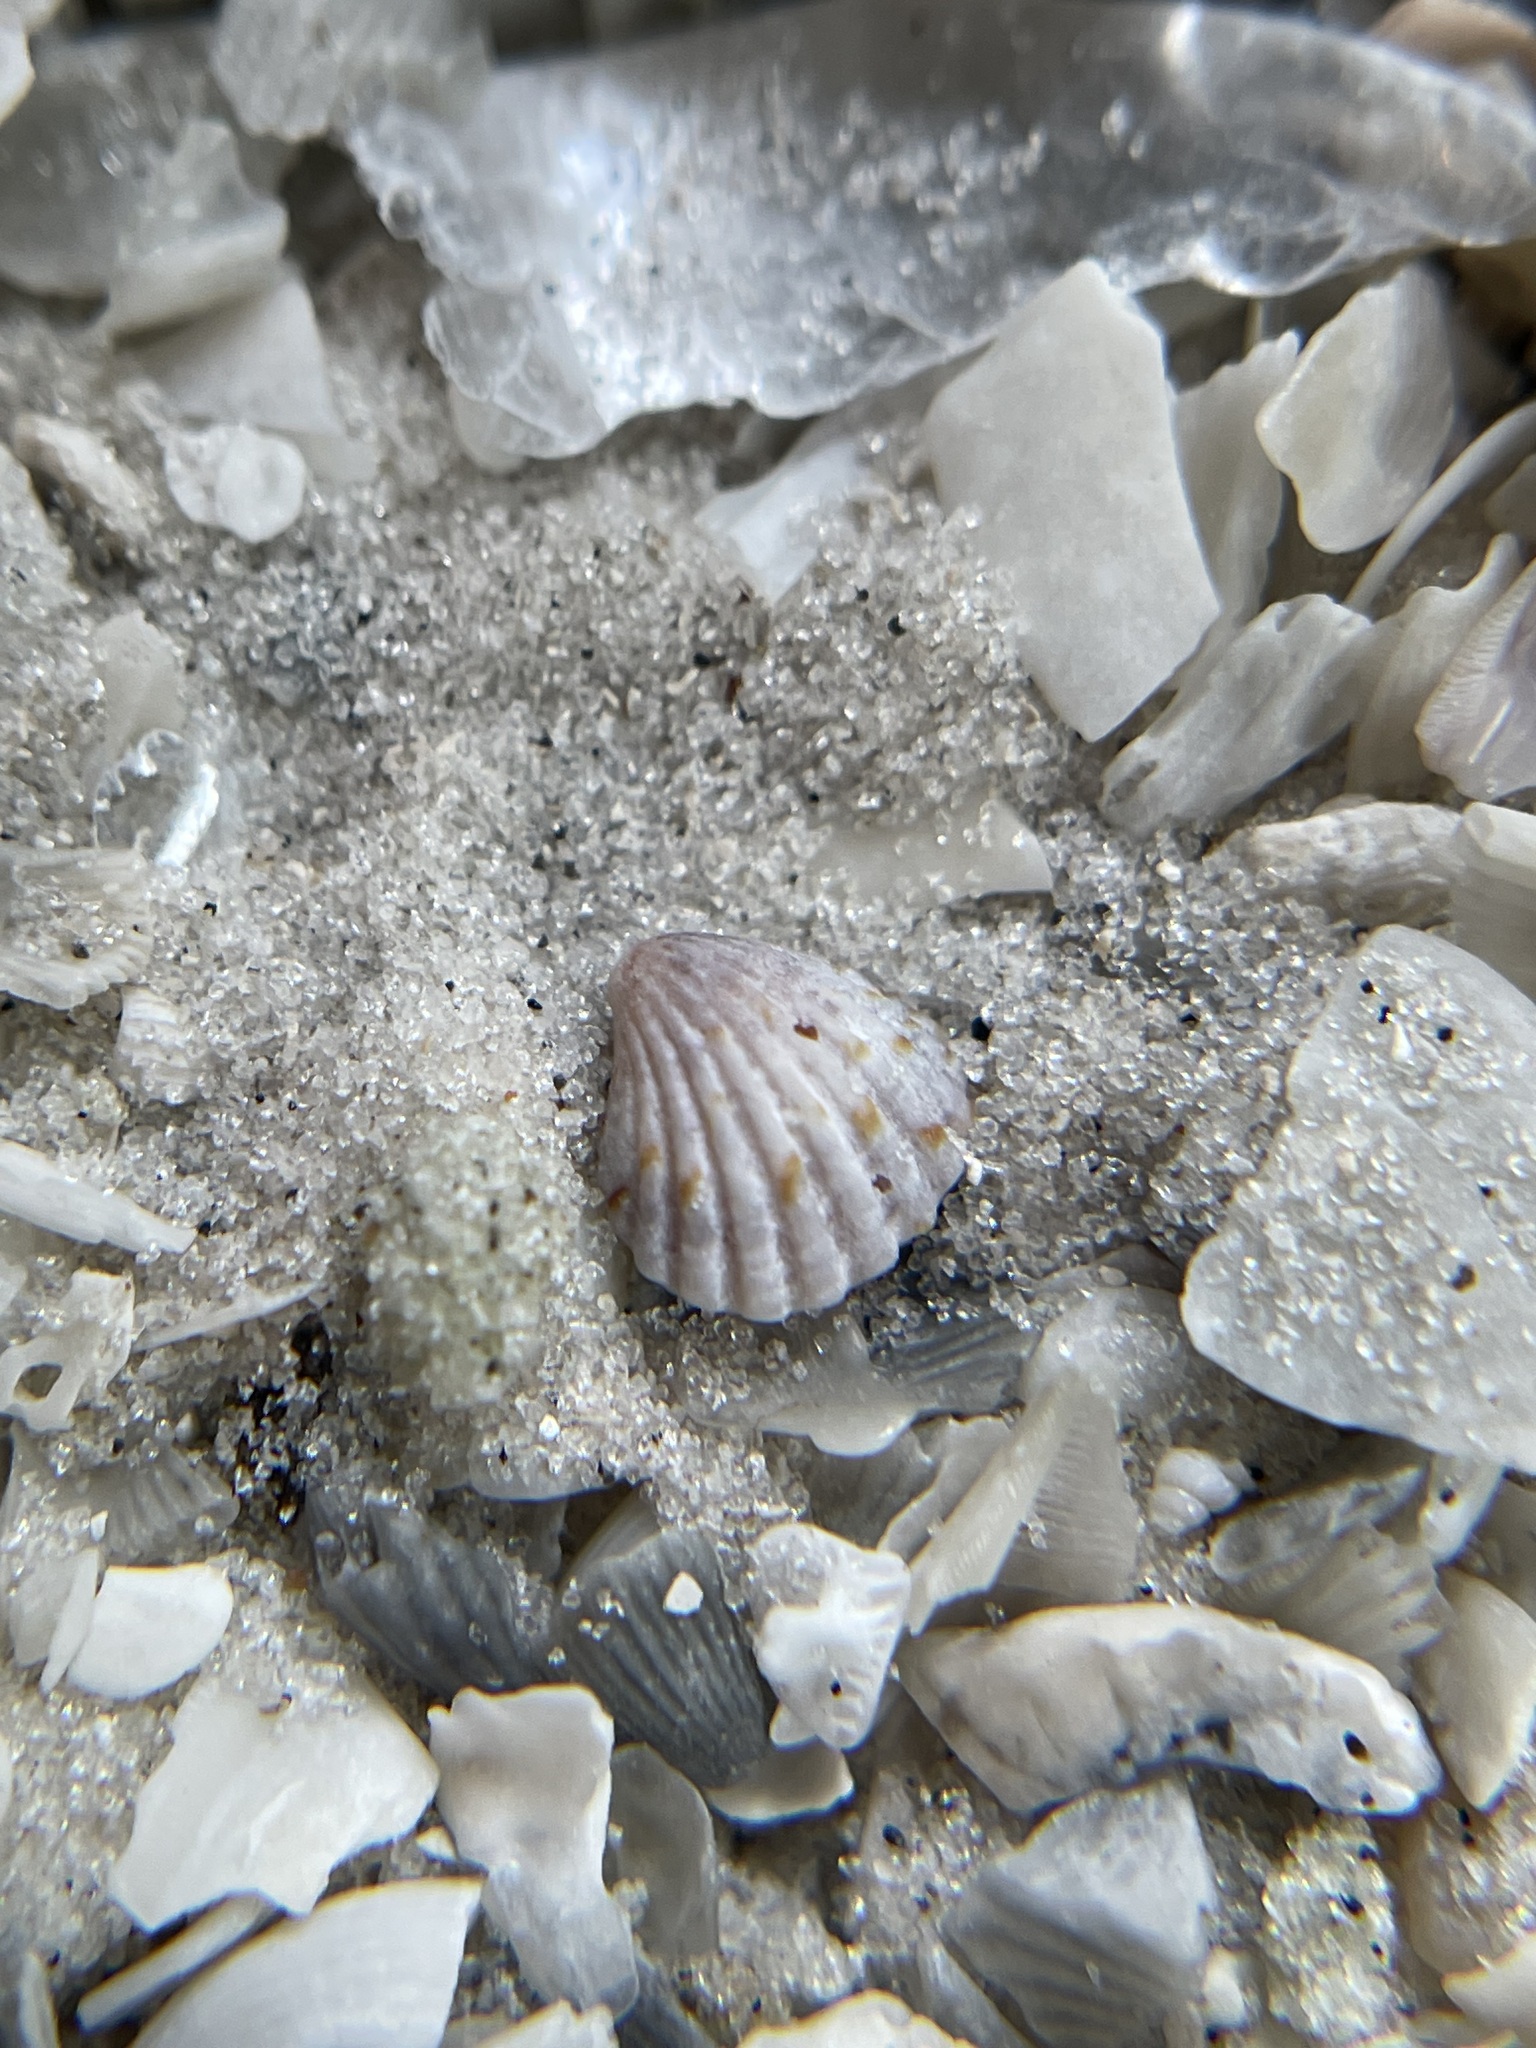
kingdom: Animalia
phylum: Mollusca
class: Bivalvia
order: Carditida
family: Carditidae
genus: Pleuromeris
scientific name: Pleuromeris tridentata
